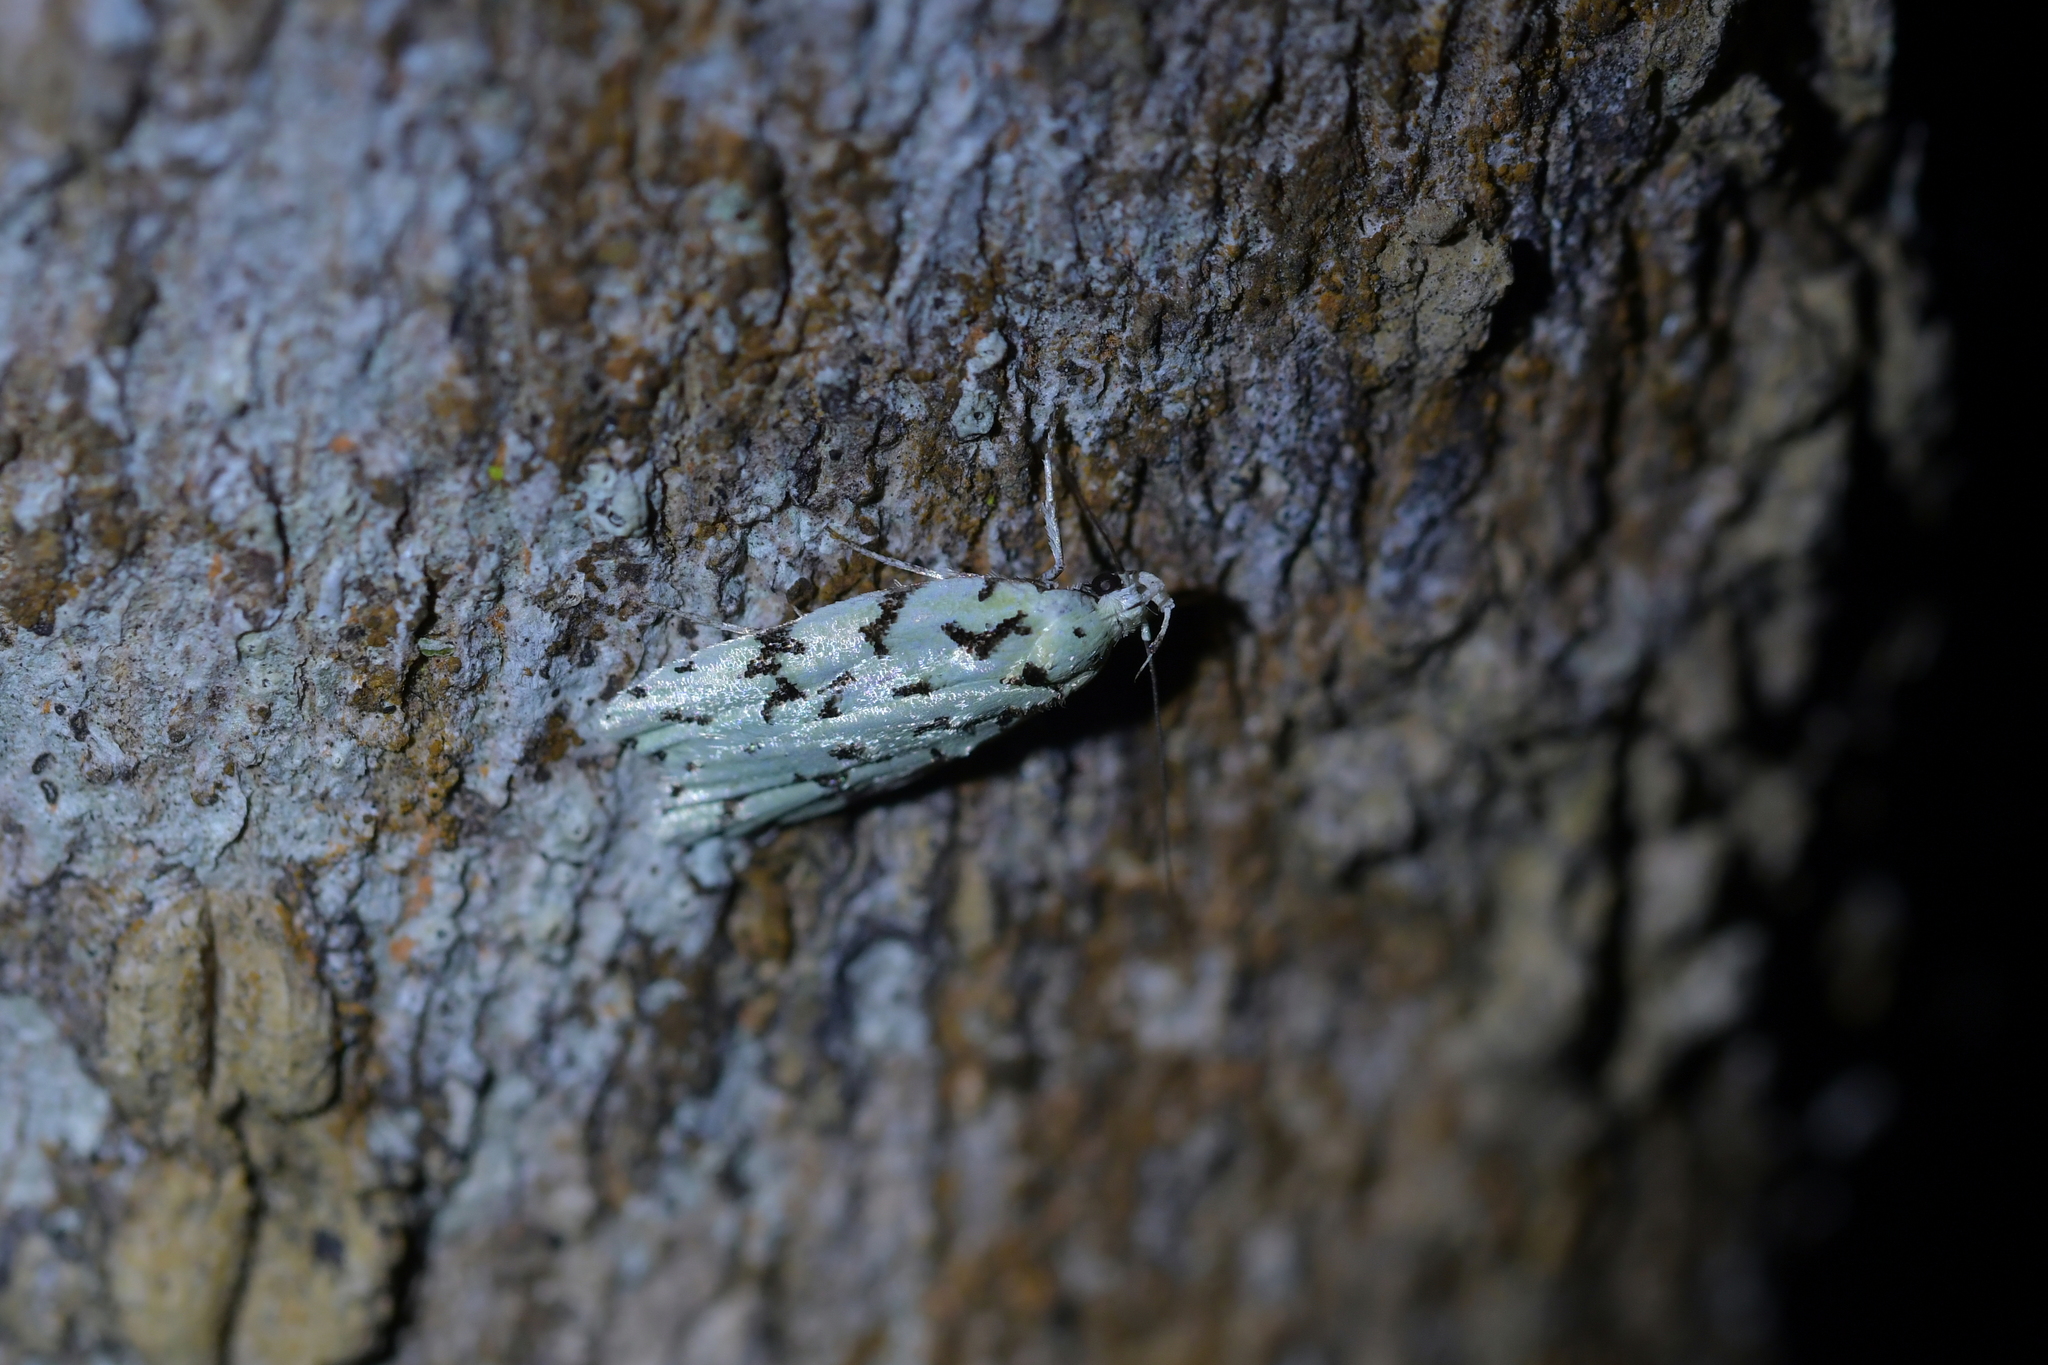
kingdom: Animalia
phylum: Arthropoda
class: Insecta
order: Lepidoptera
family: Oecophoridae
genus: Izatha
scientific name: Izatha peroneanella
